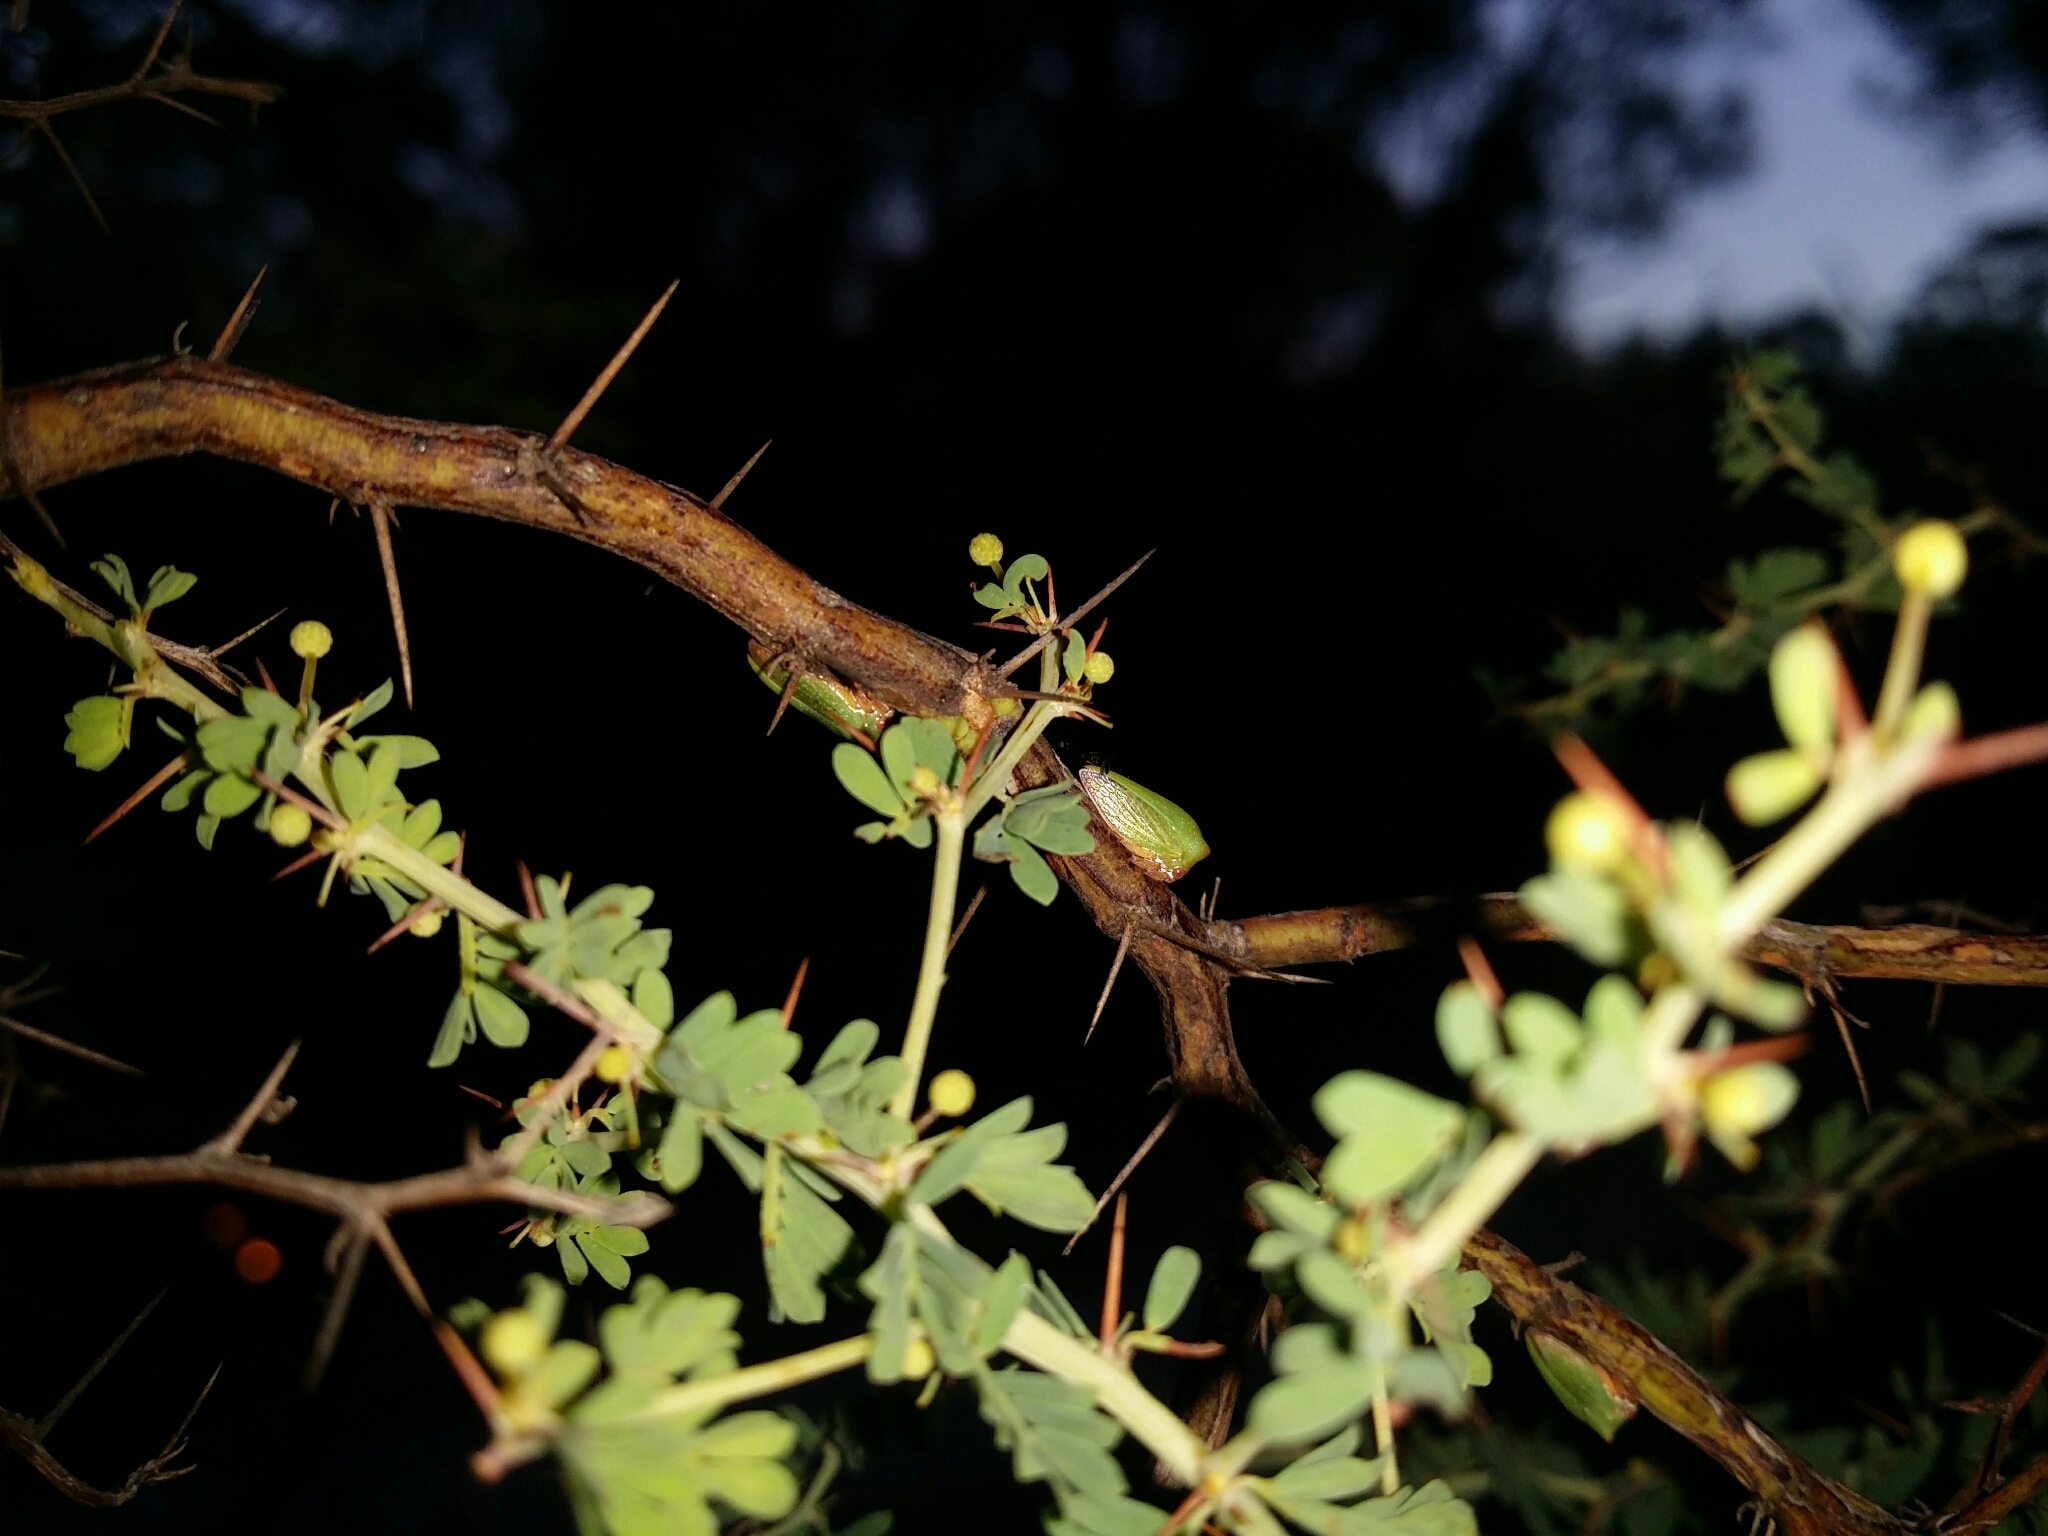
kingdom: Animalia
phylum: Arthropoda
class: Insecta
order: Hemiptera
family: Membracidae
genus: Sextius
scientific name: Sextius virescens
